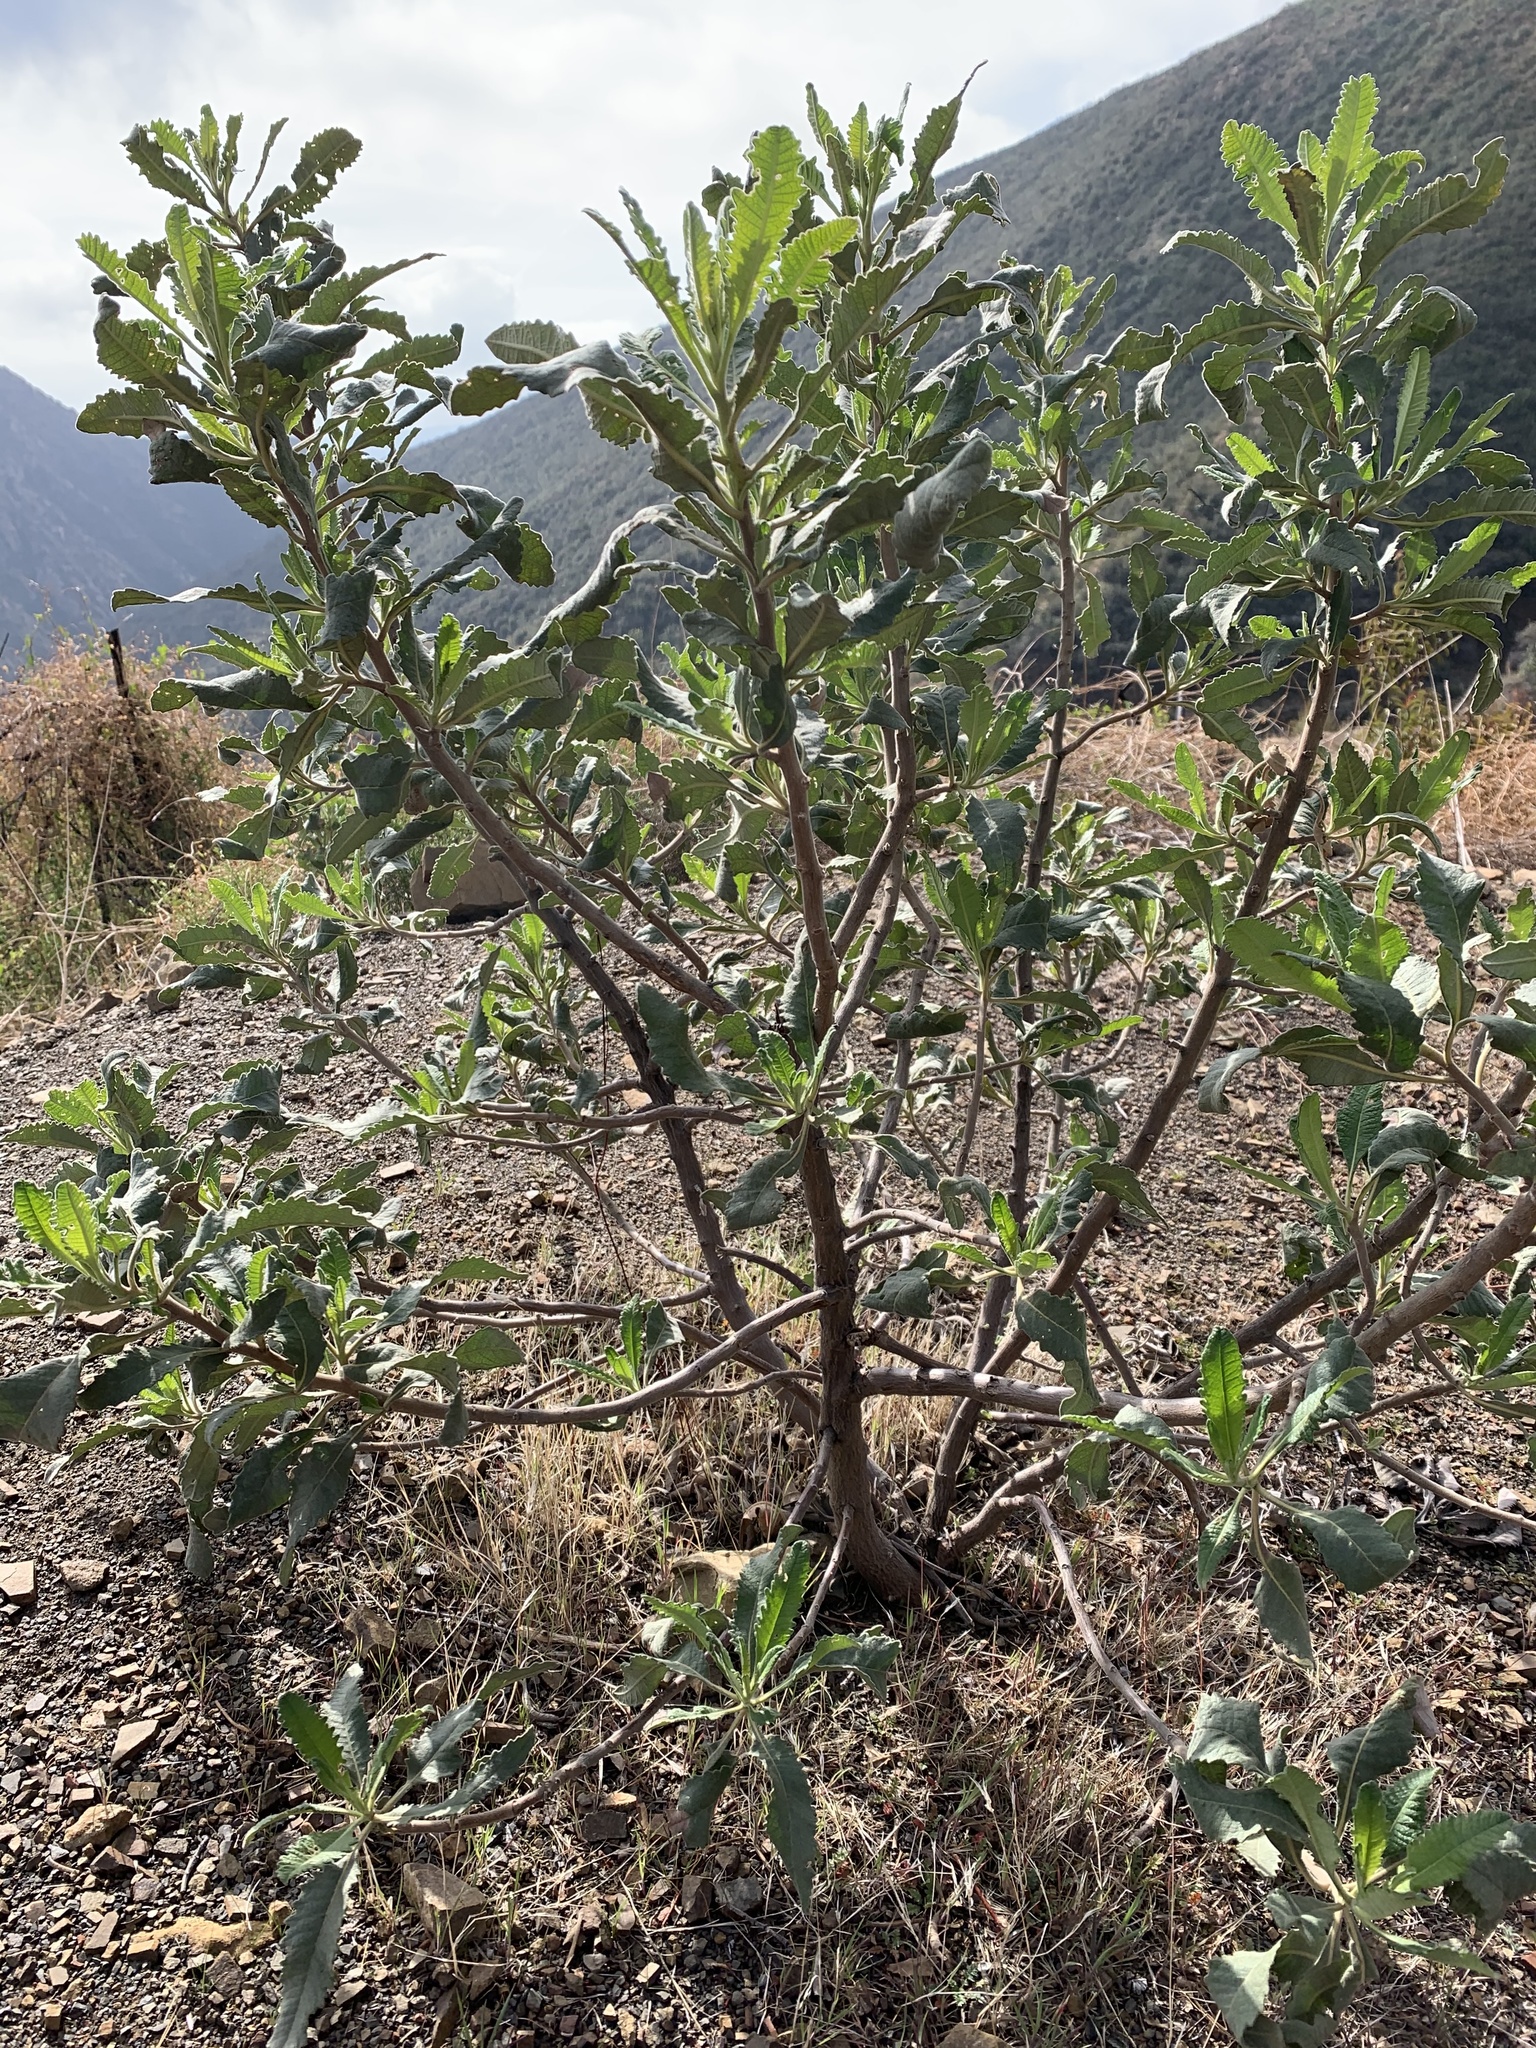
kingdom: Plantae
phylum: Tracheophyta
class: Magnoliopsida
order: Boraginales
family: Namaceae
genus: Eriodictyon
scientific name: Eriodictyon crassifolium
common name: Thick-leaf yerba-santa
